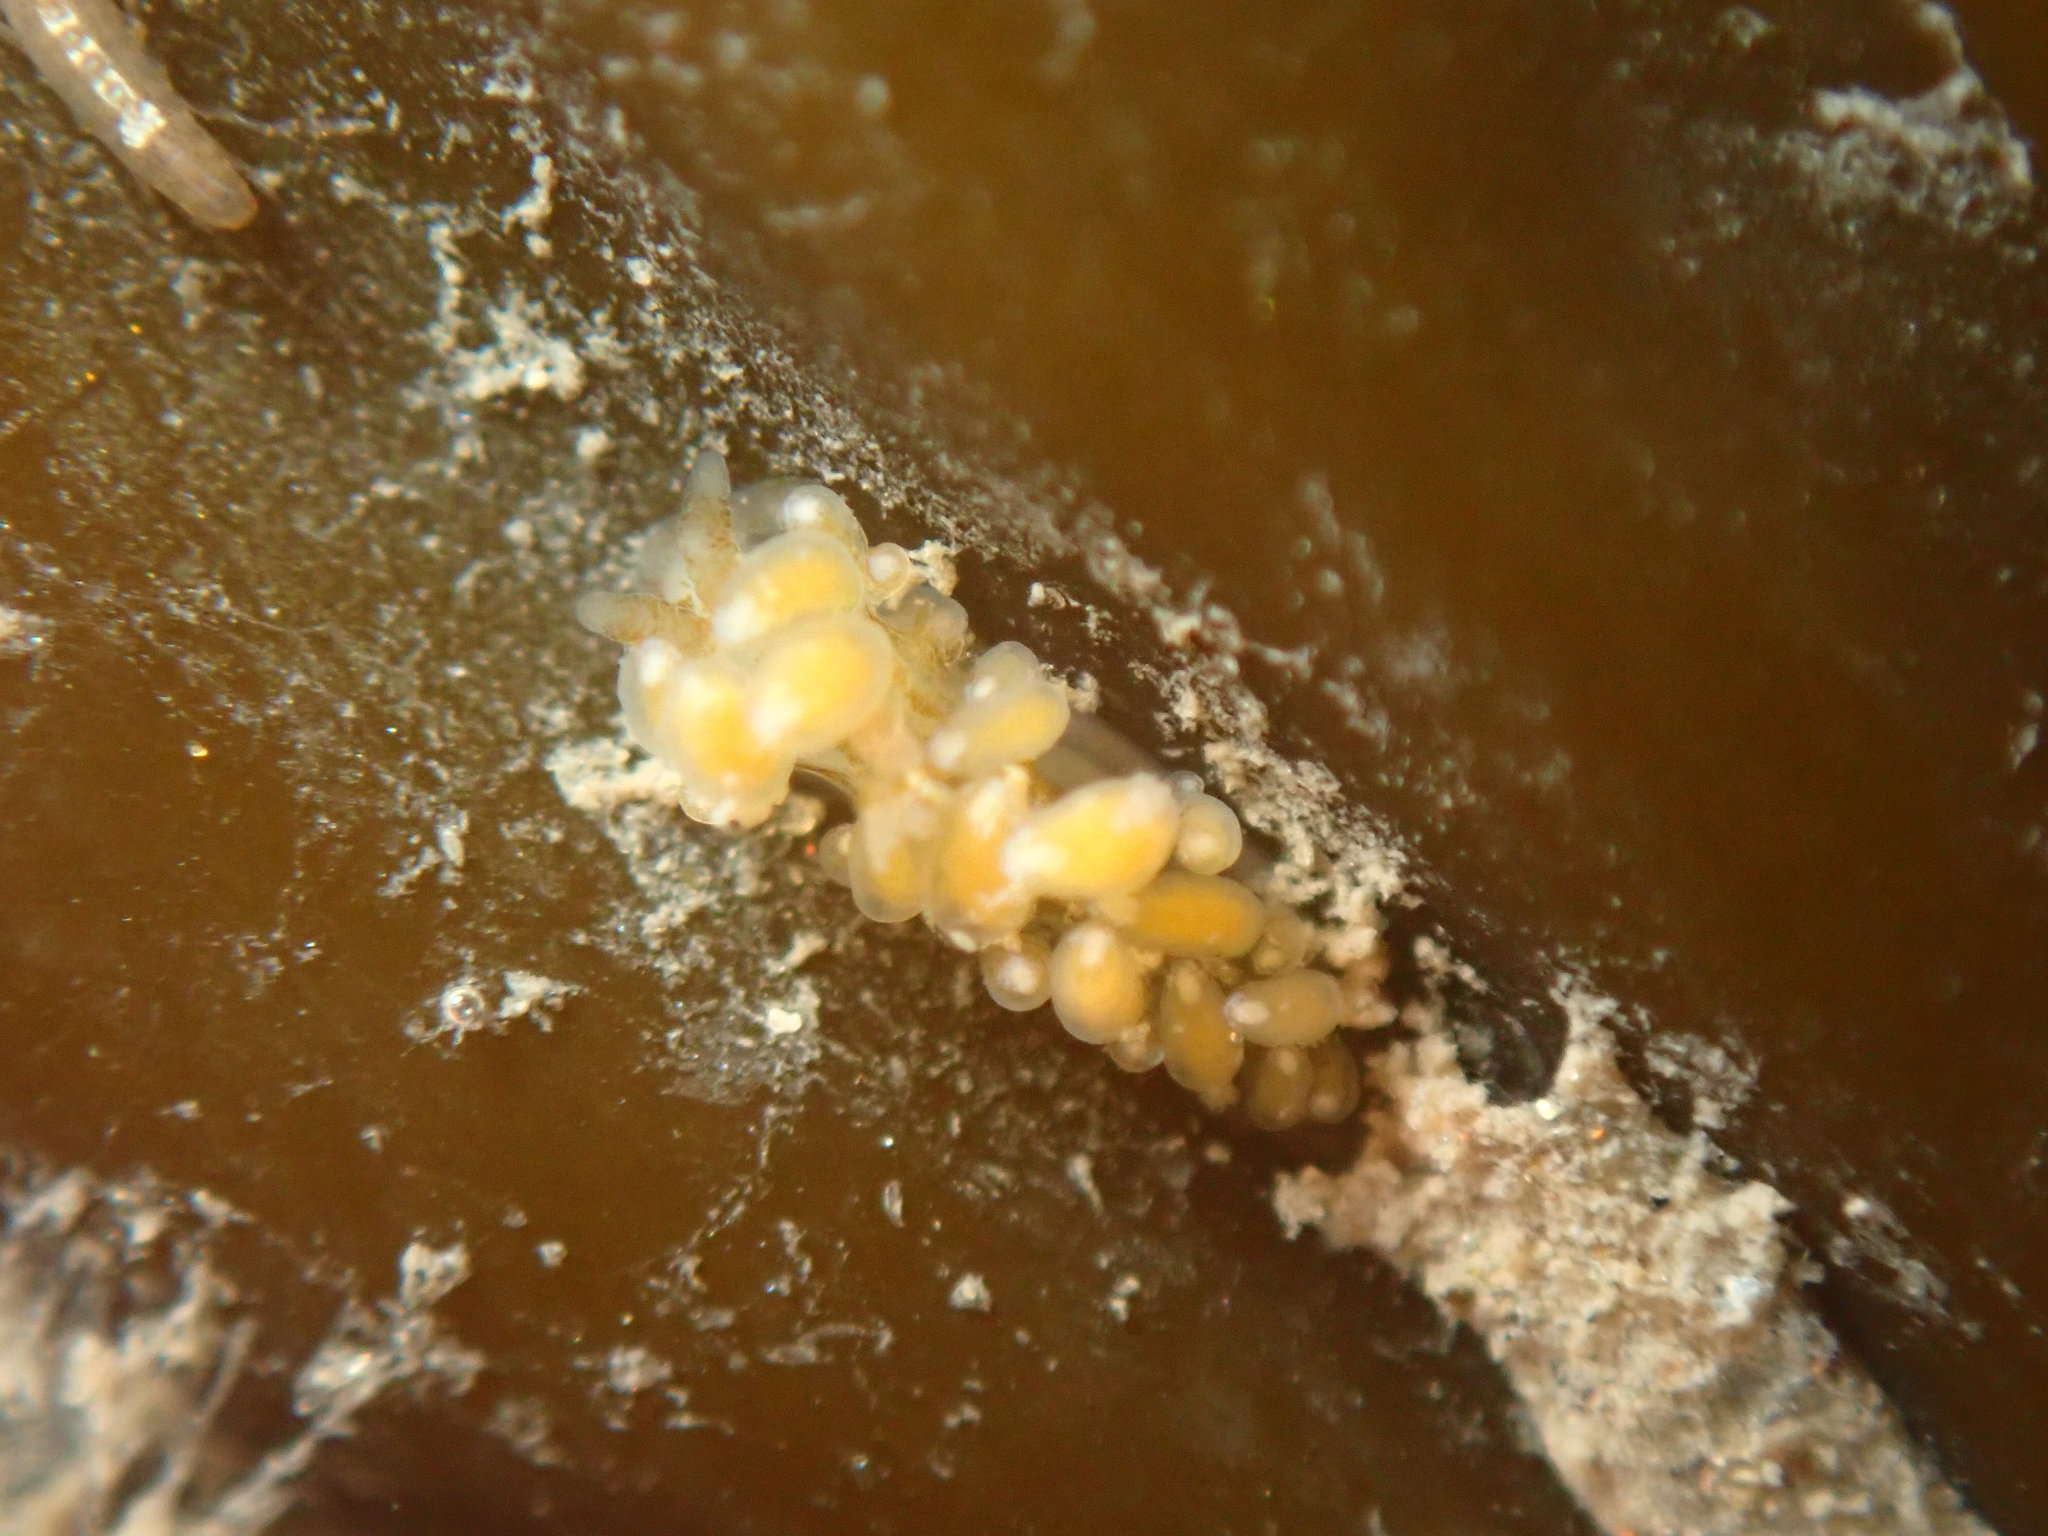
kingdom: Animalia
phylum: Mollusca
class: Gastropoda
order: Nudibranchia
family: Eubranchidae
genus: Eubranchus
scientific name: Eubranchus rustyus
